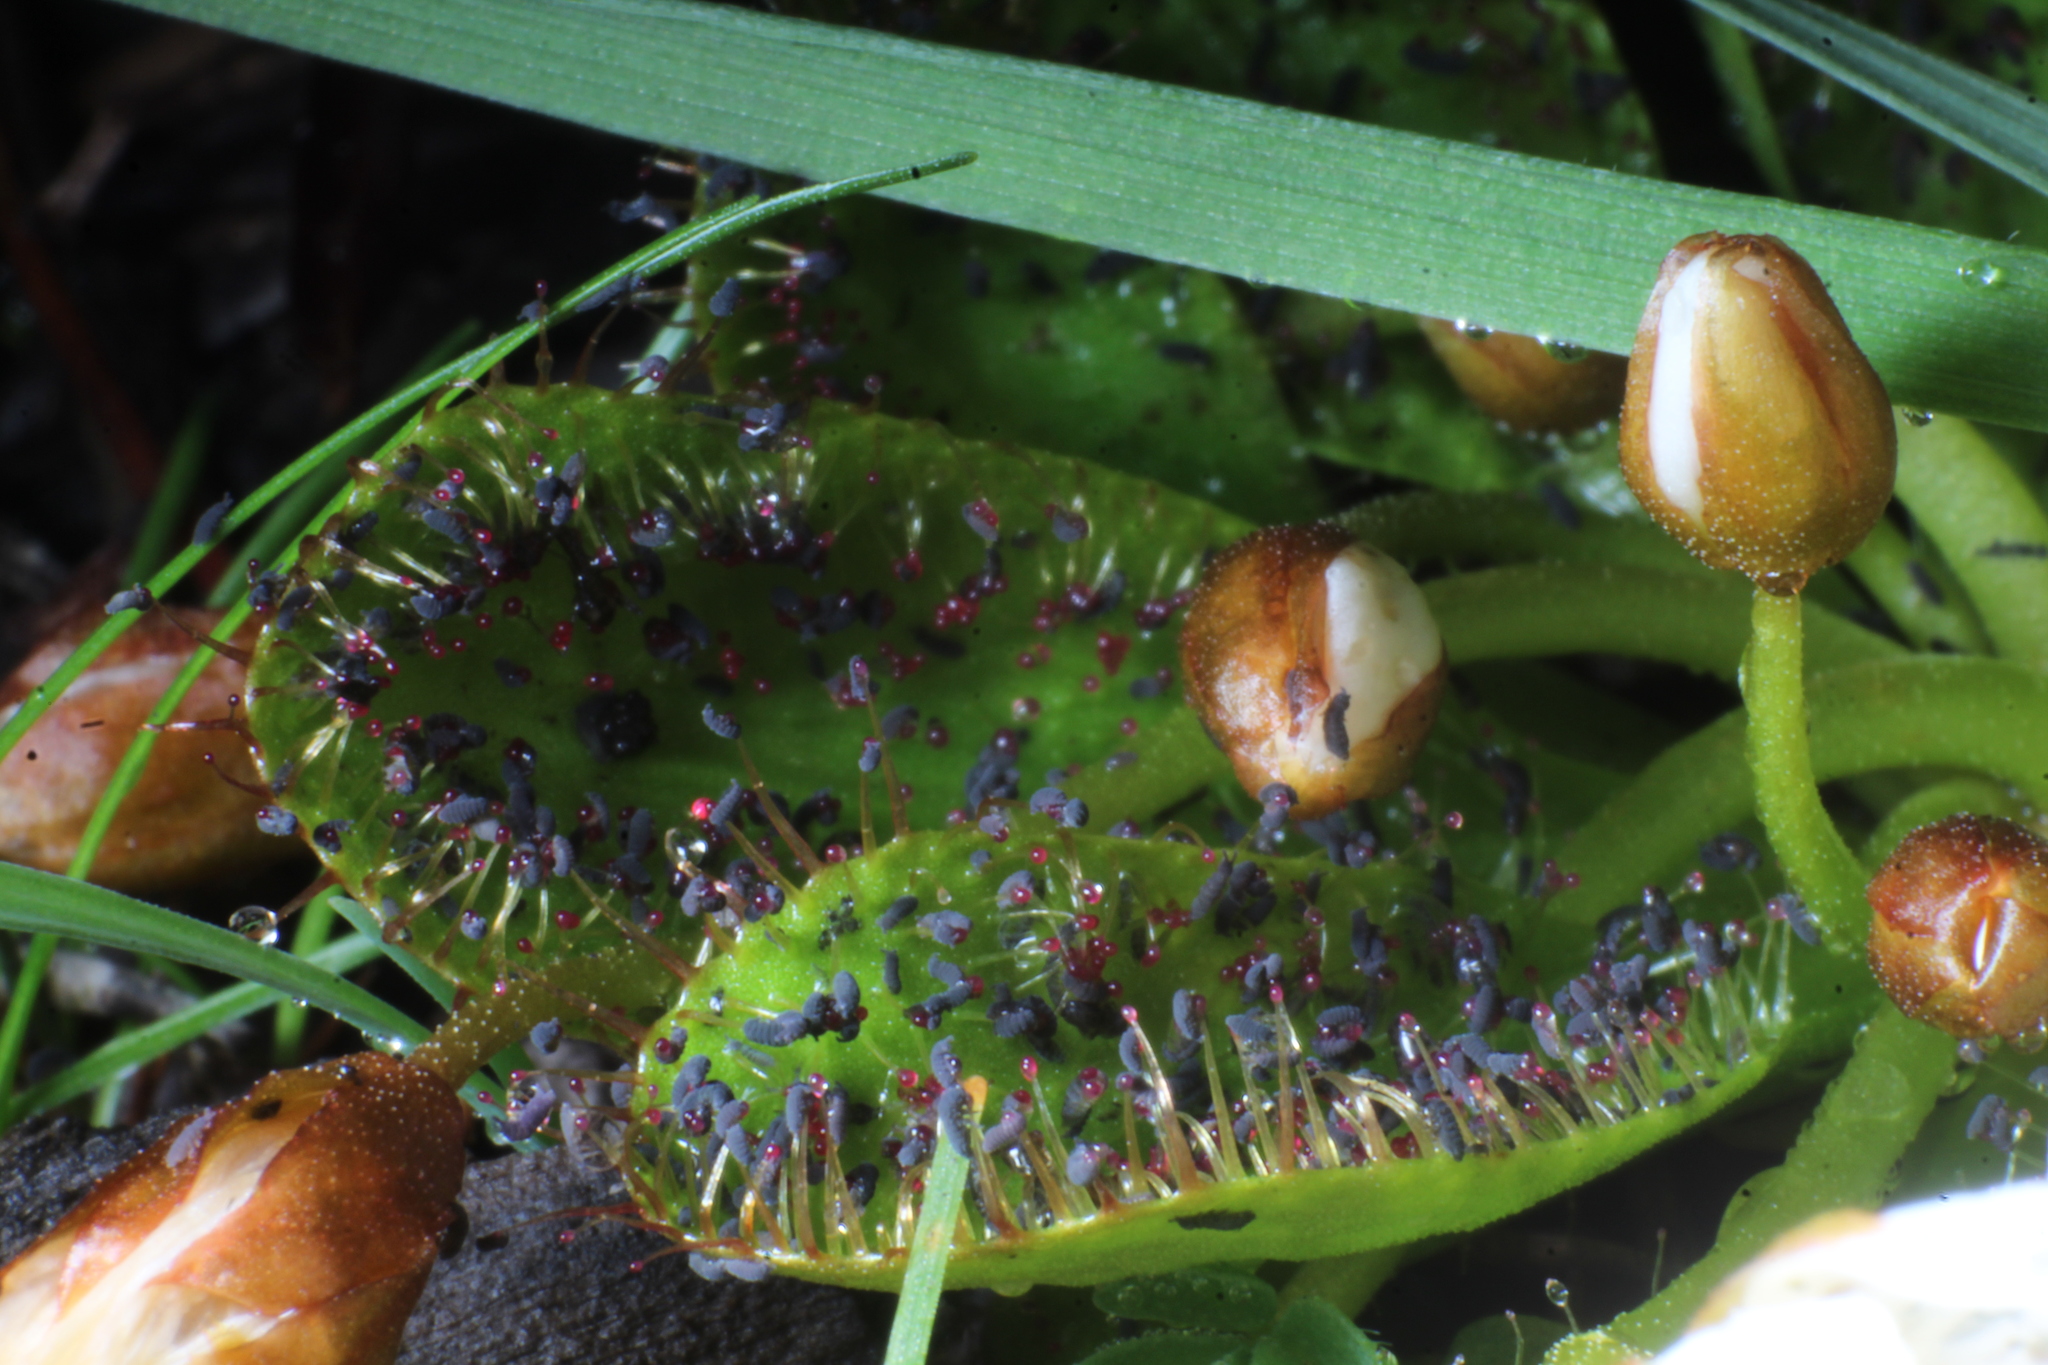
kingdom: Plantae
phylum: Tracheophyta
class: Magnoliopsida
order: Caryophyllales
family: Droseraceae
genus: Drosera
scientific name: Drosera tubaestylis
